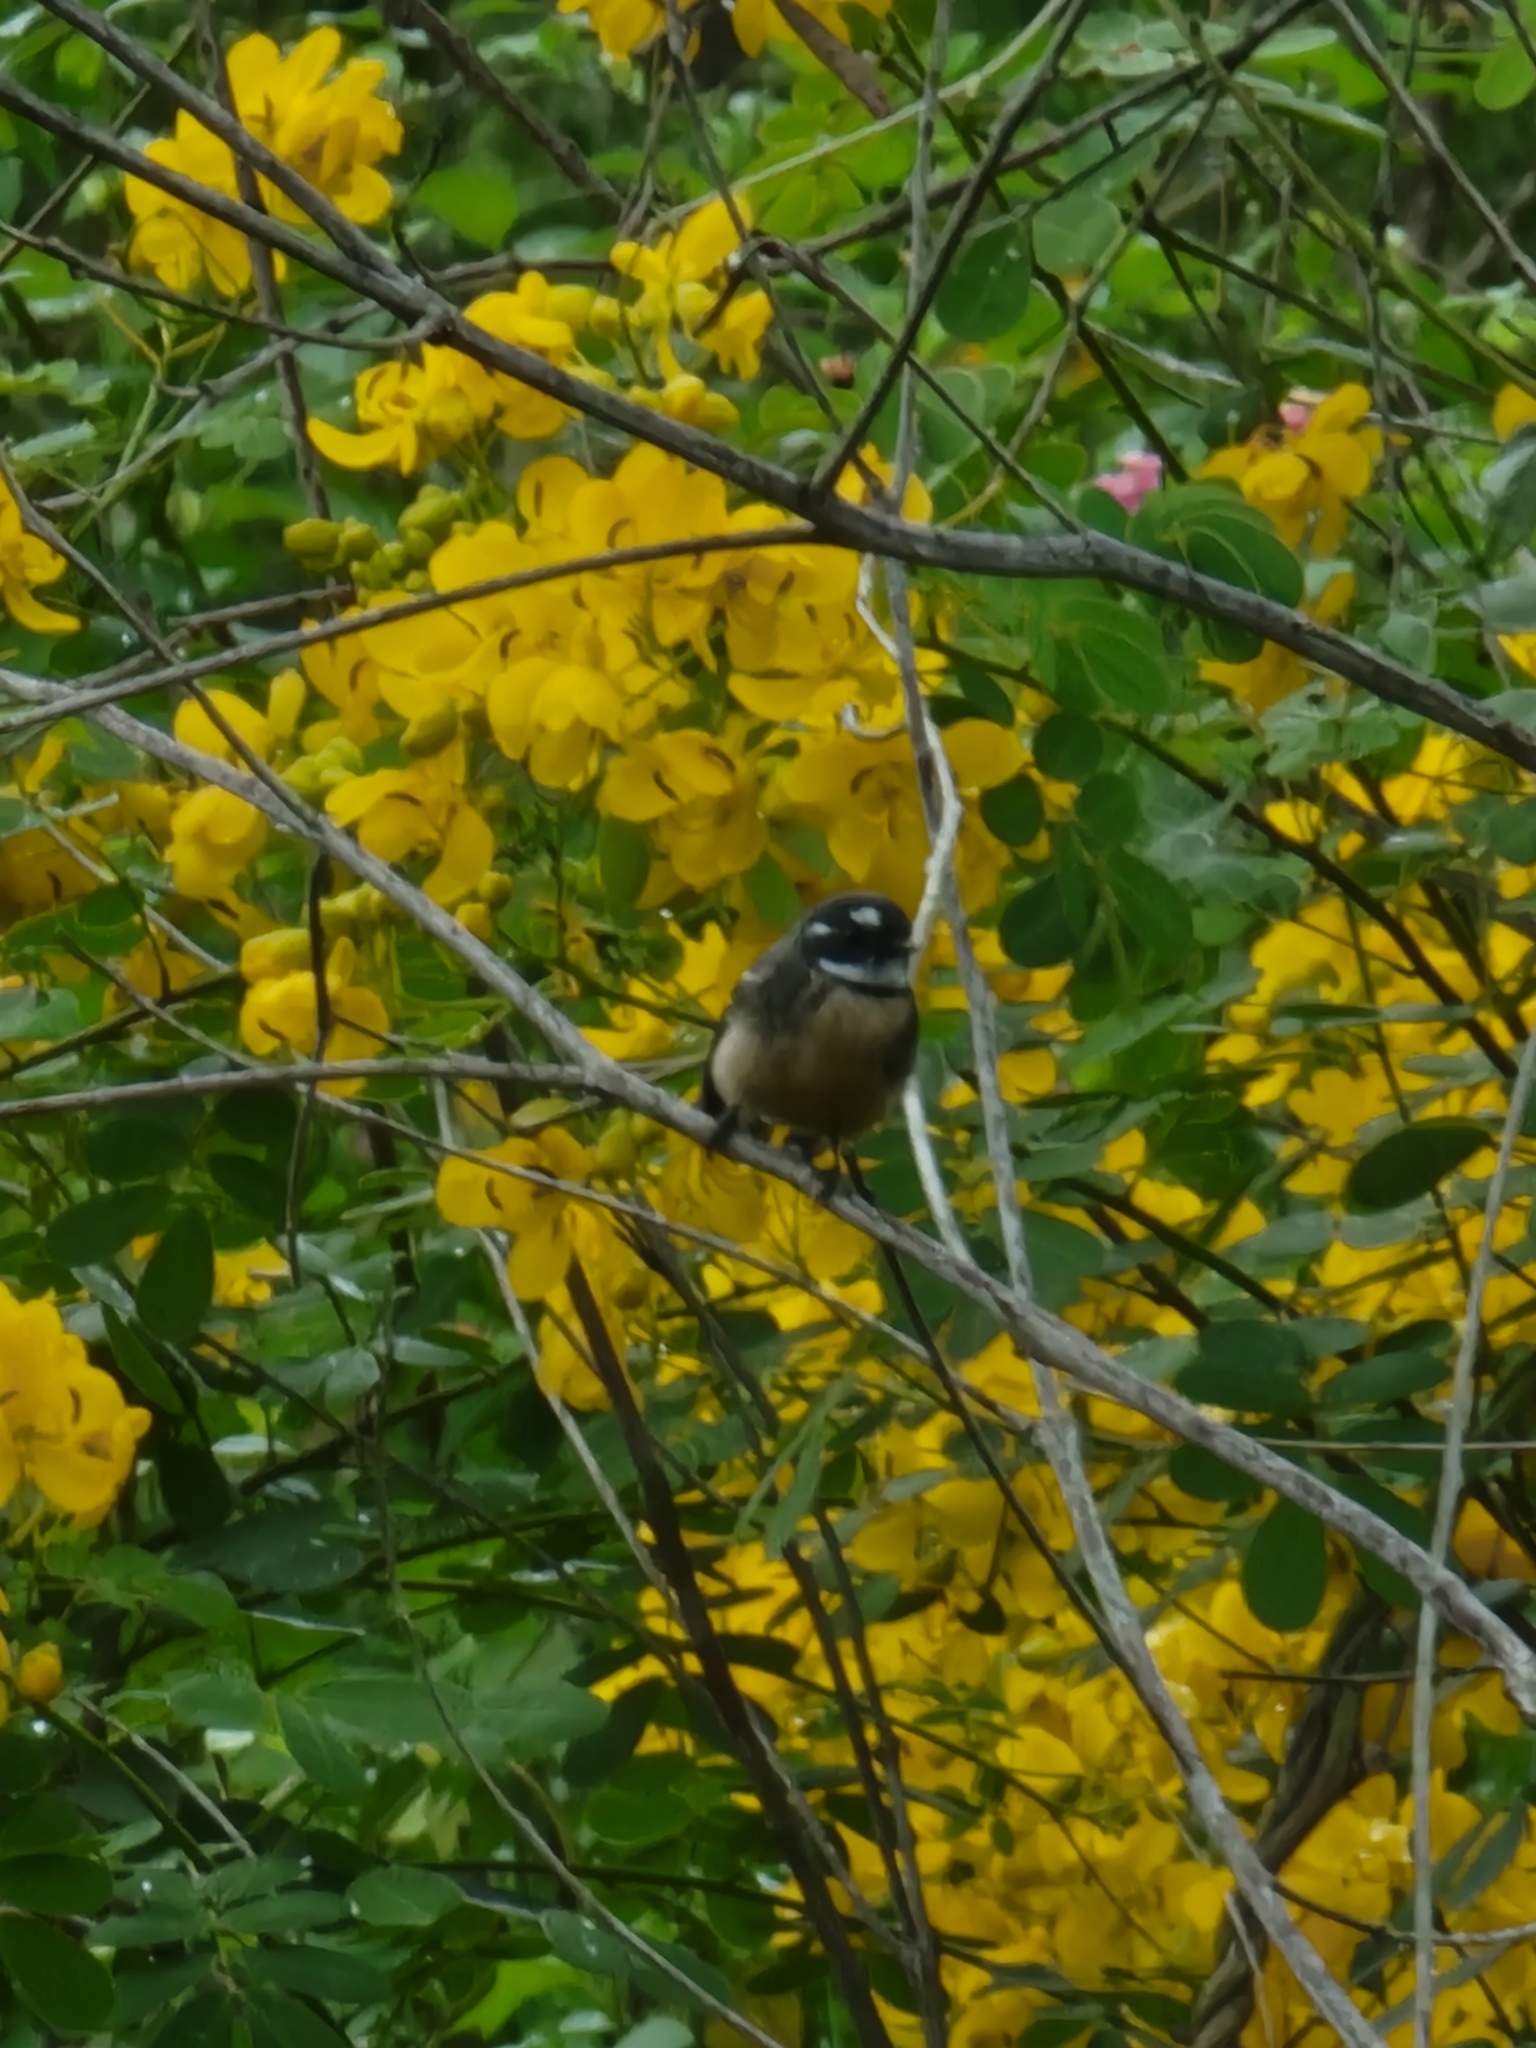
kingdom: Animalia
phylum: Chordata
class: Aves
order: Passeriformes
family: Rhipiduridae
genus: Rhipidura
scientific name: Rhipidura albiscapa
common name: Grey fantail
